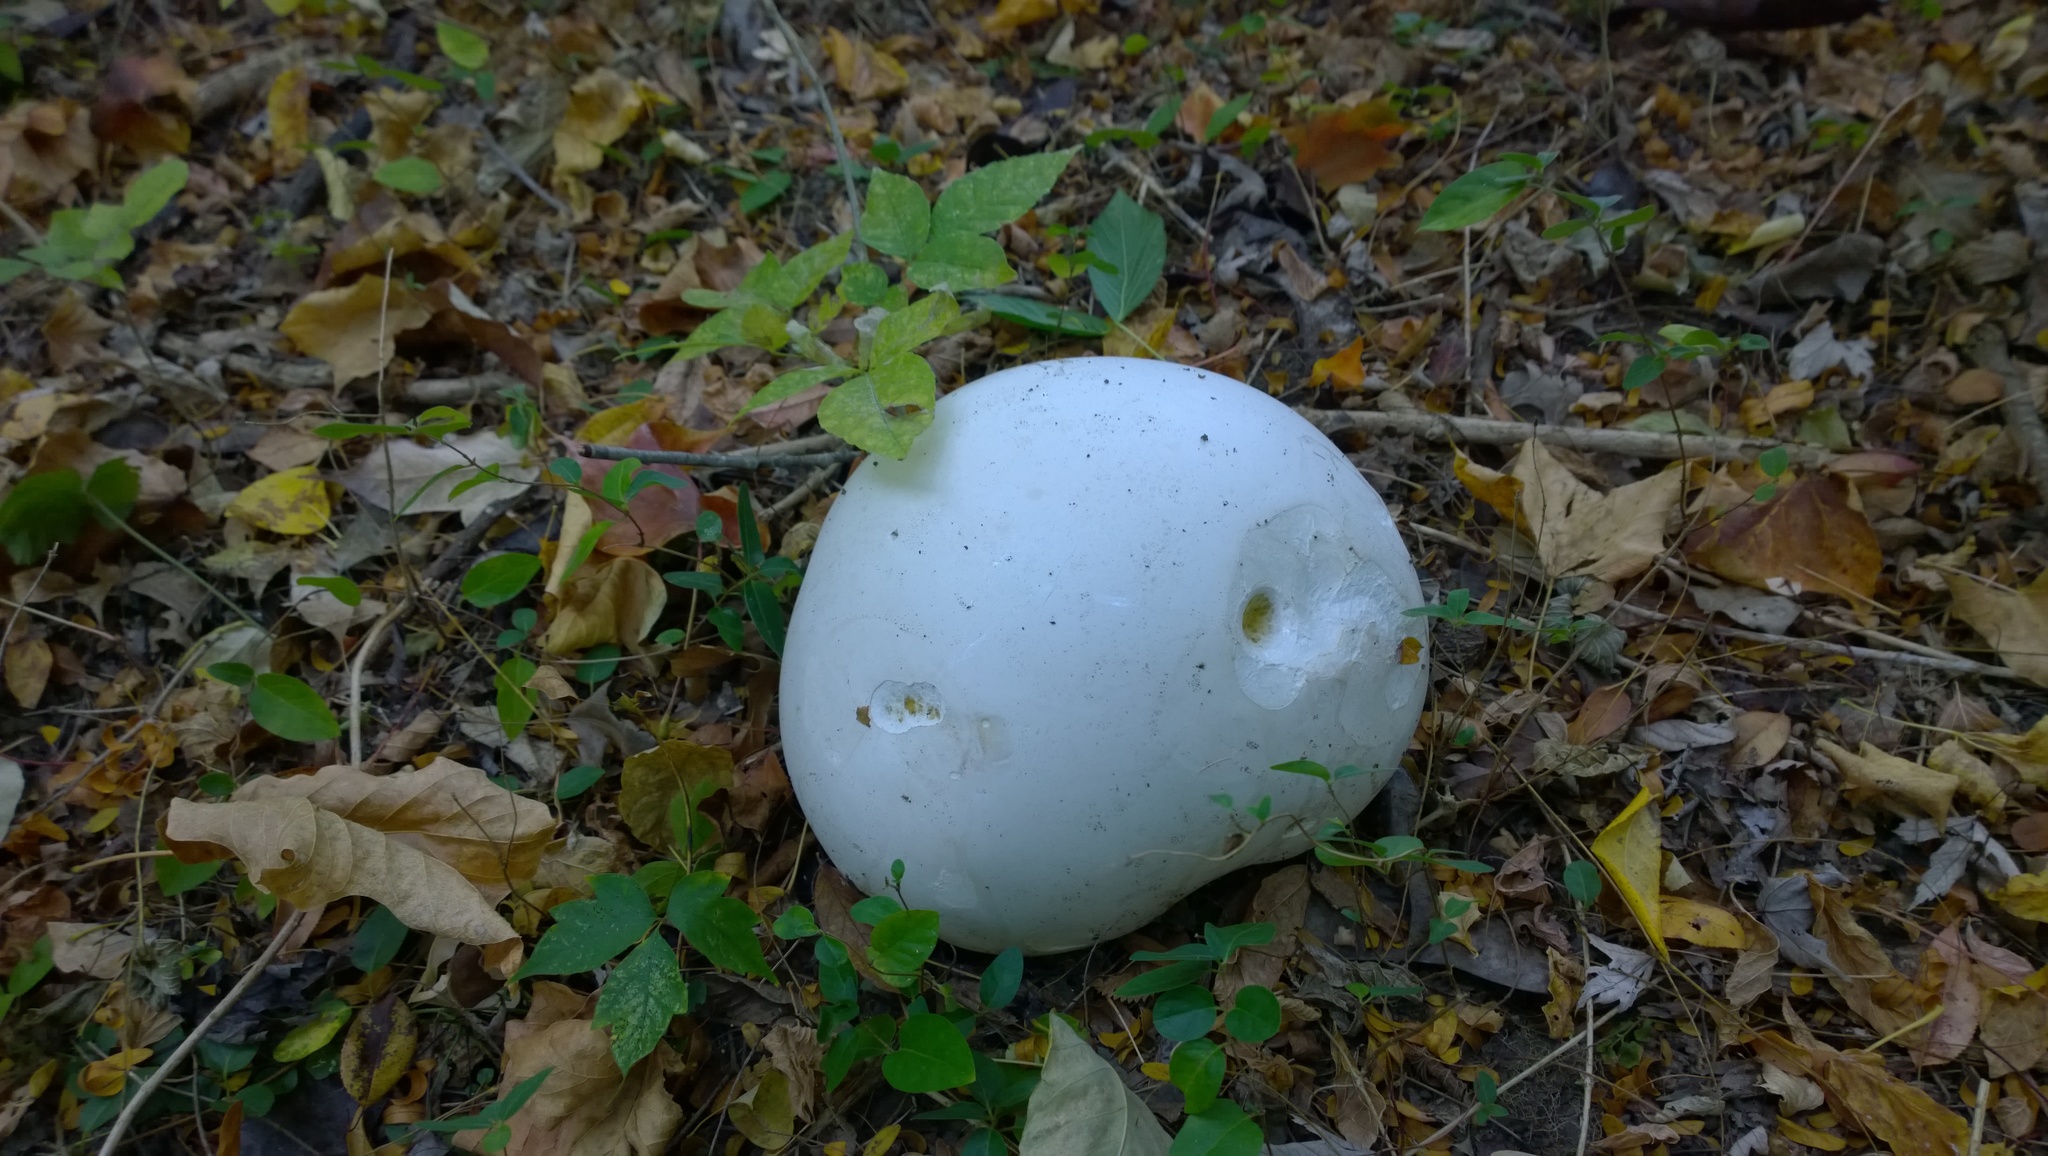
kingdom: Fungi
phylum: Basidiomycota
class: Agaricomycetes
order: Agaricales
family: Lycoperdaceae
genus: Calvatia
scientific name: Calvatia gigantea
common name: Giant puffball
